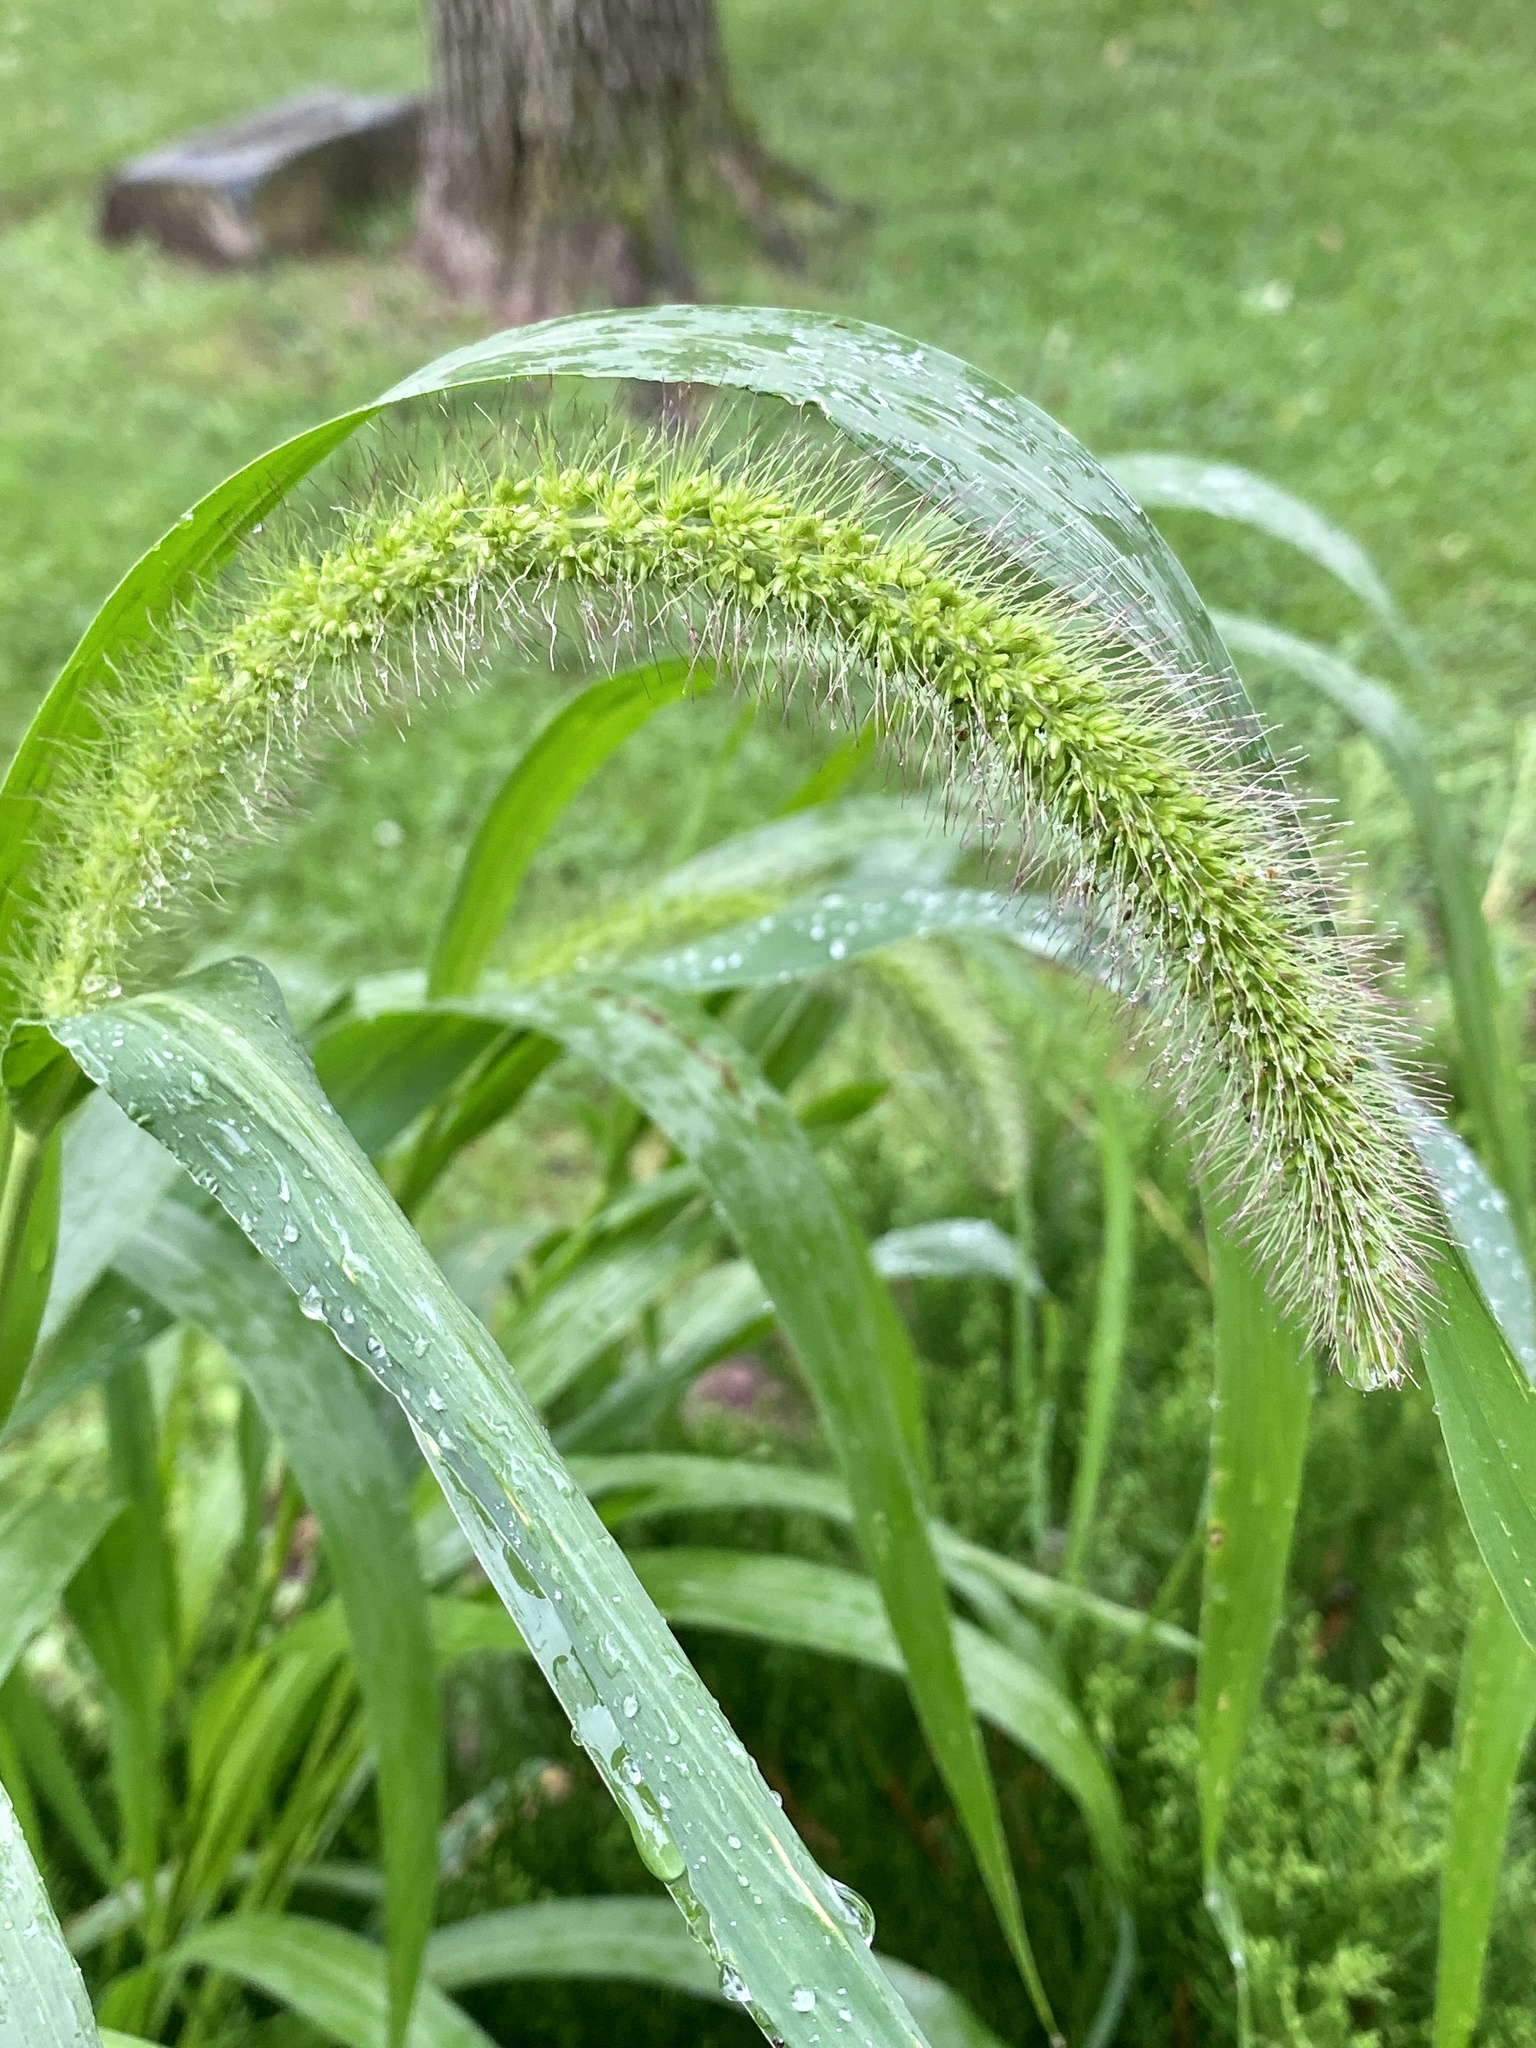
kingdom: Plantae
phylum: Tracheophyta
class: Liliopsida
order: Poales
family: Poaceae
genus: Setaria
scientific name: Setaria faberi
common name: Nodding bristle-grass
